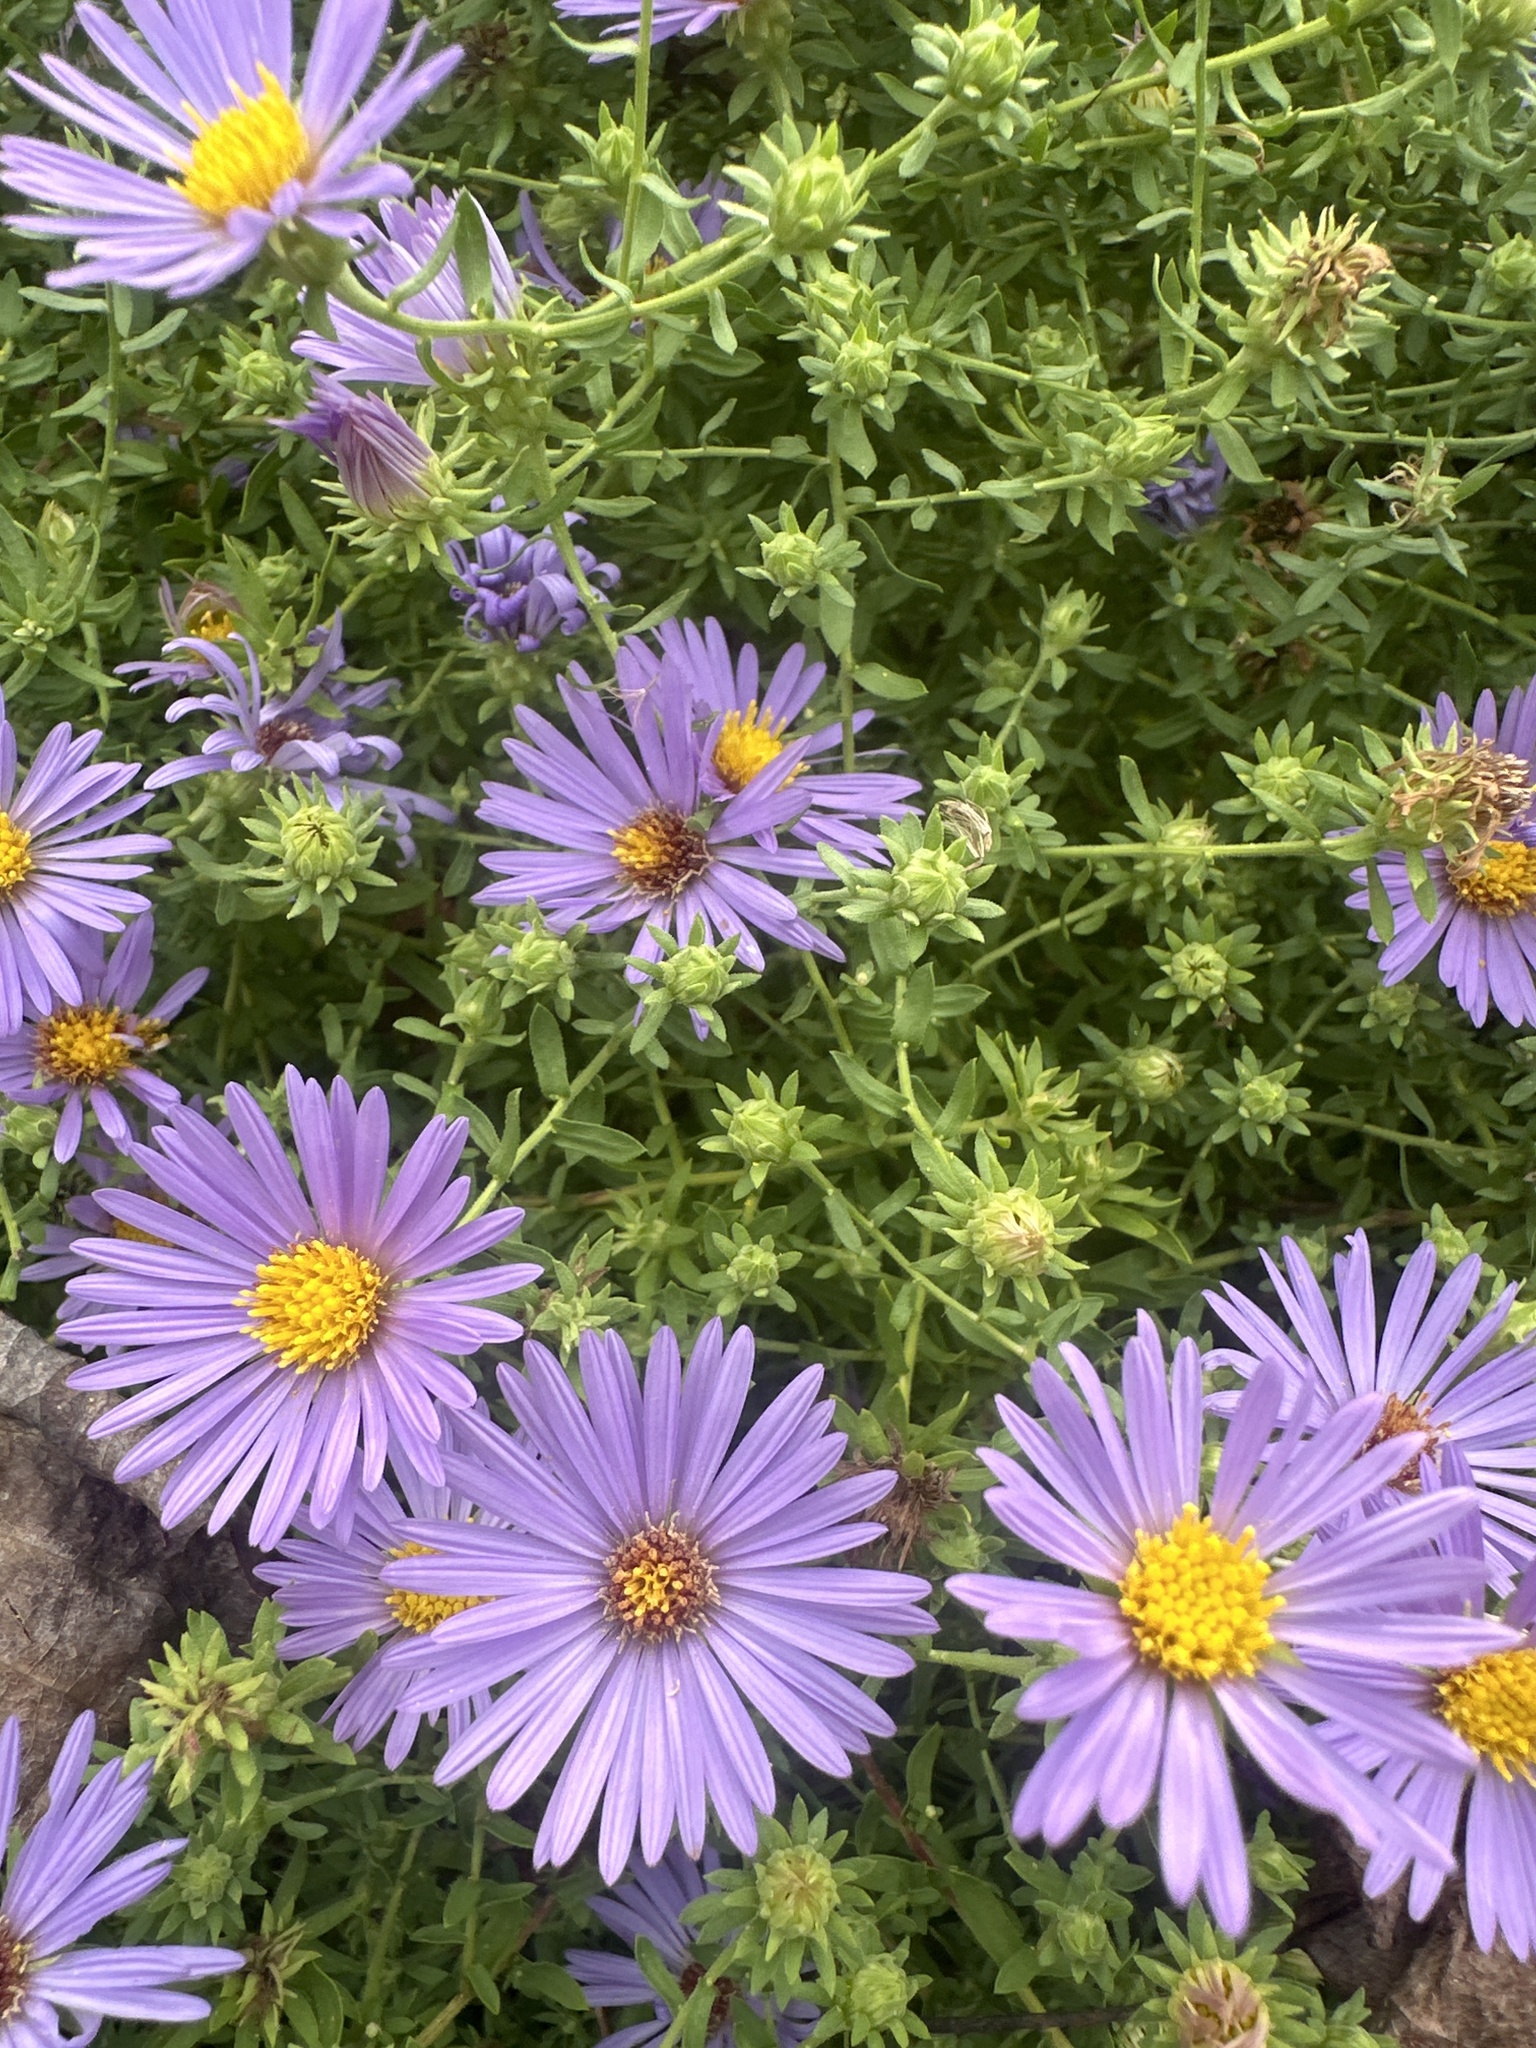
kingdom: Plantae
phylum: Tracheophyta
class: Magnoliopsida
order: Asterales
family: Asteraceae
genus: Symphyotrichum
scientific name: Symphyotrichum novae-angliae
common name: Michaelmas daisy
